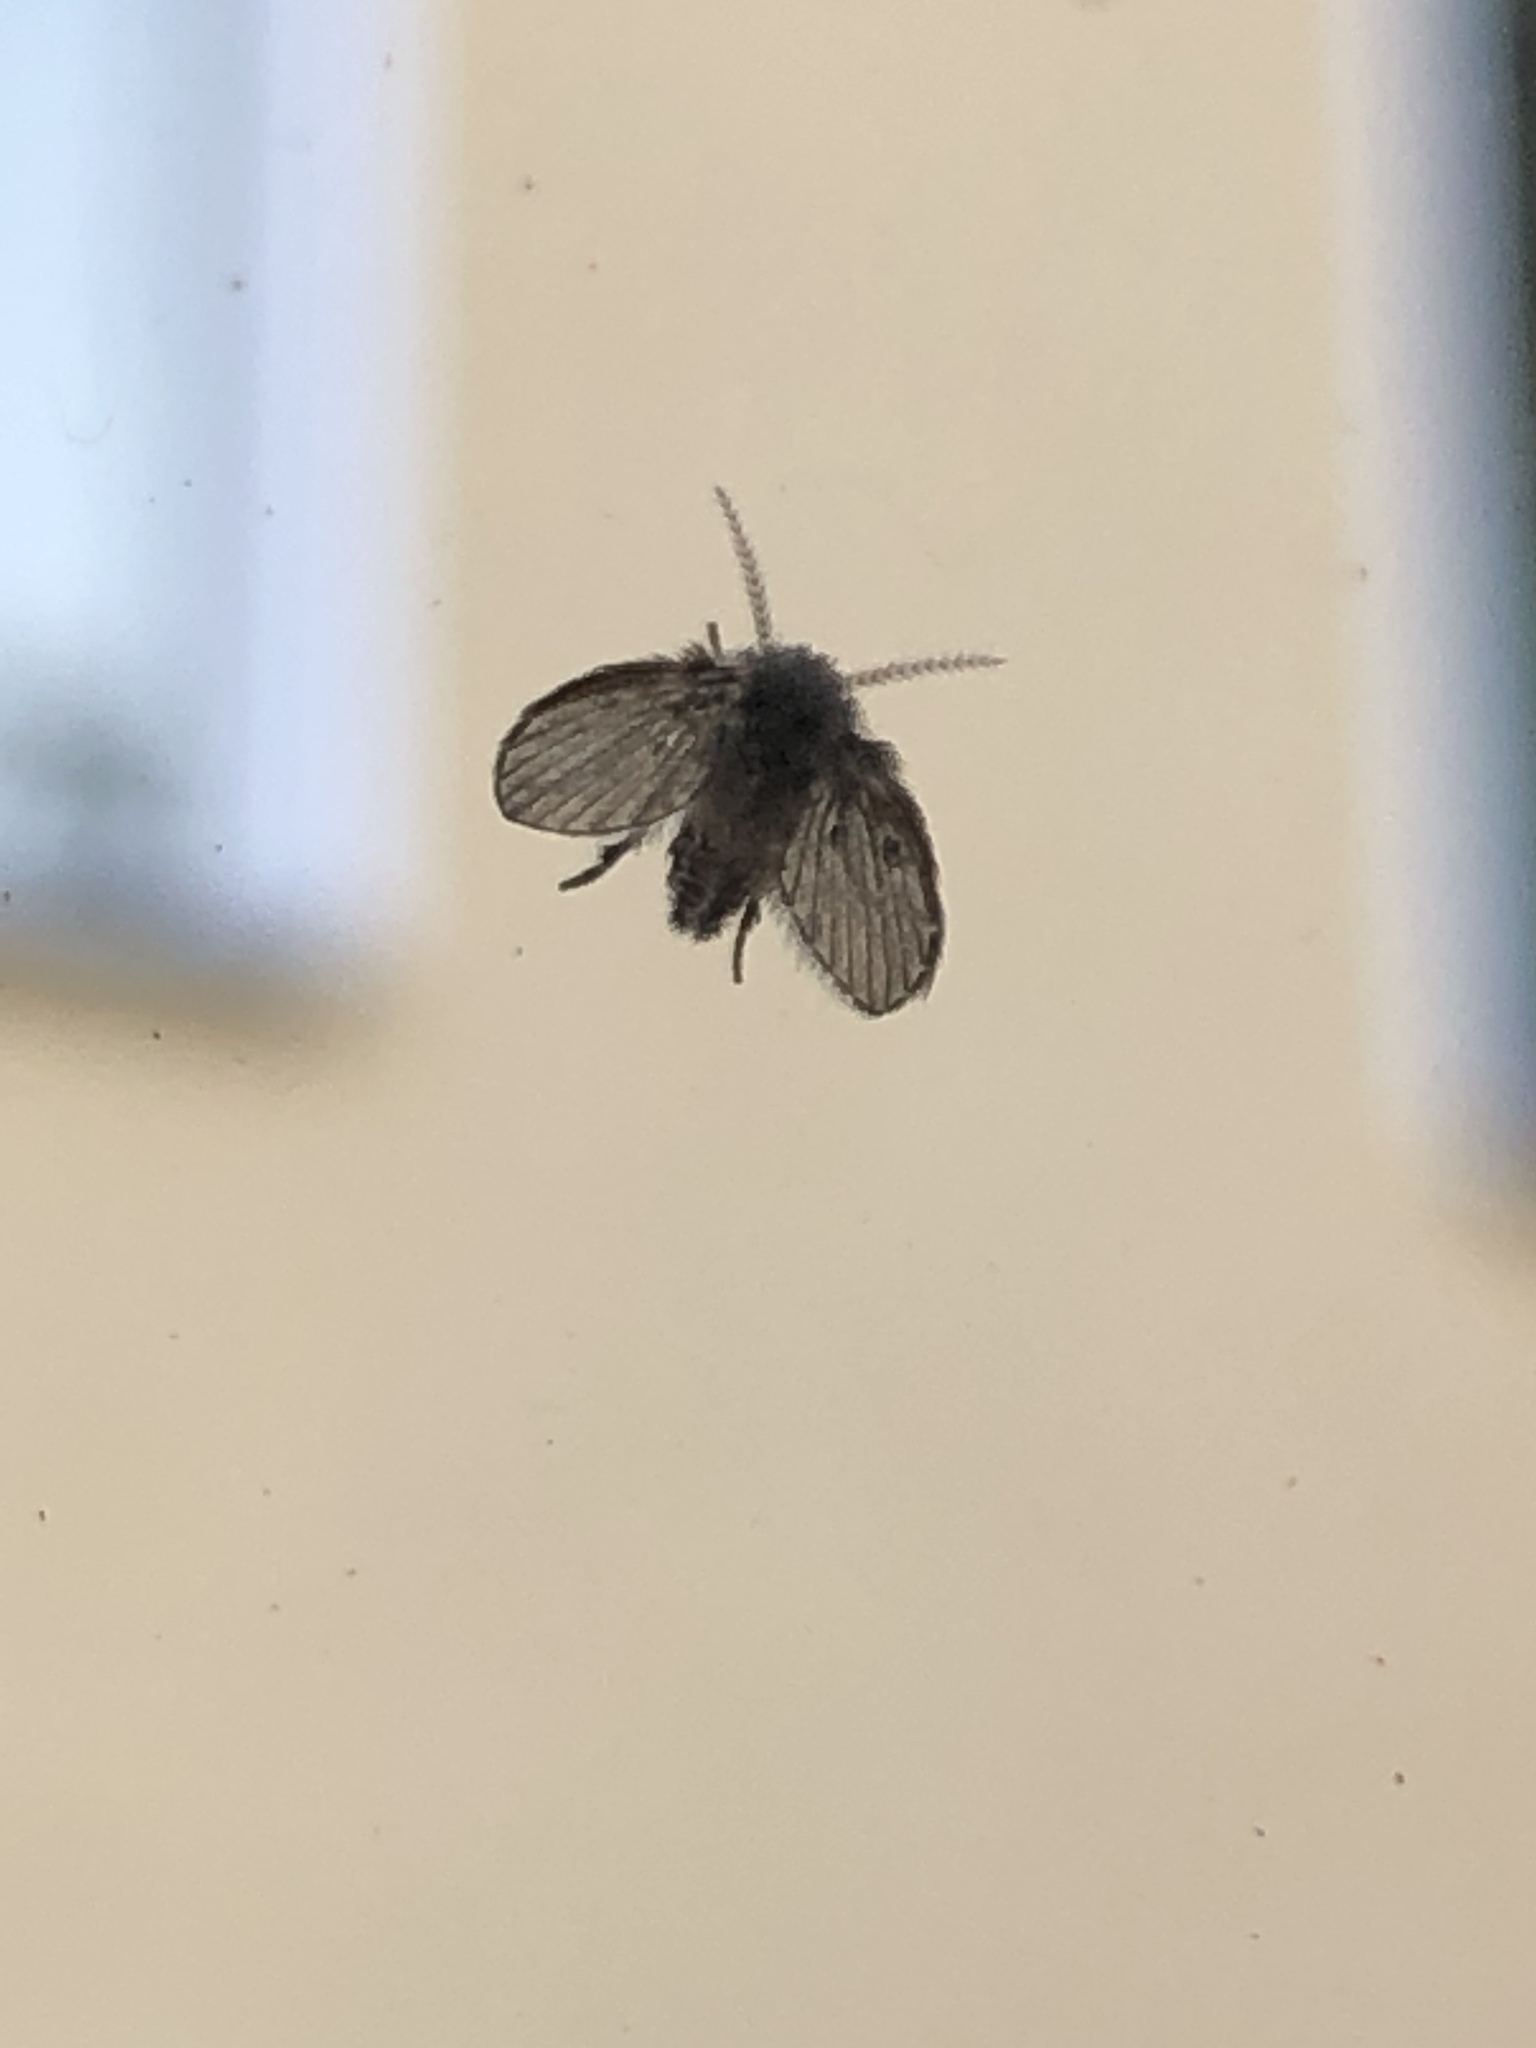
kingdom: Animalia
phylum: Arthropoda
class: Insecta
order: Diptera
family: Psychodidae
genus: Clogmia
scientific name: Clogmia albipunctatus
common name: White-spotted moth fly
